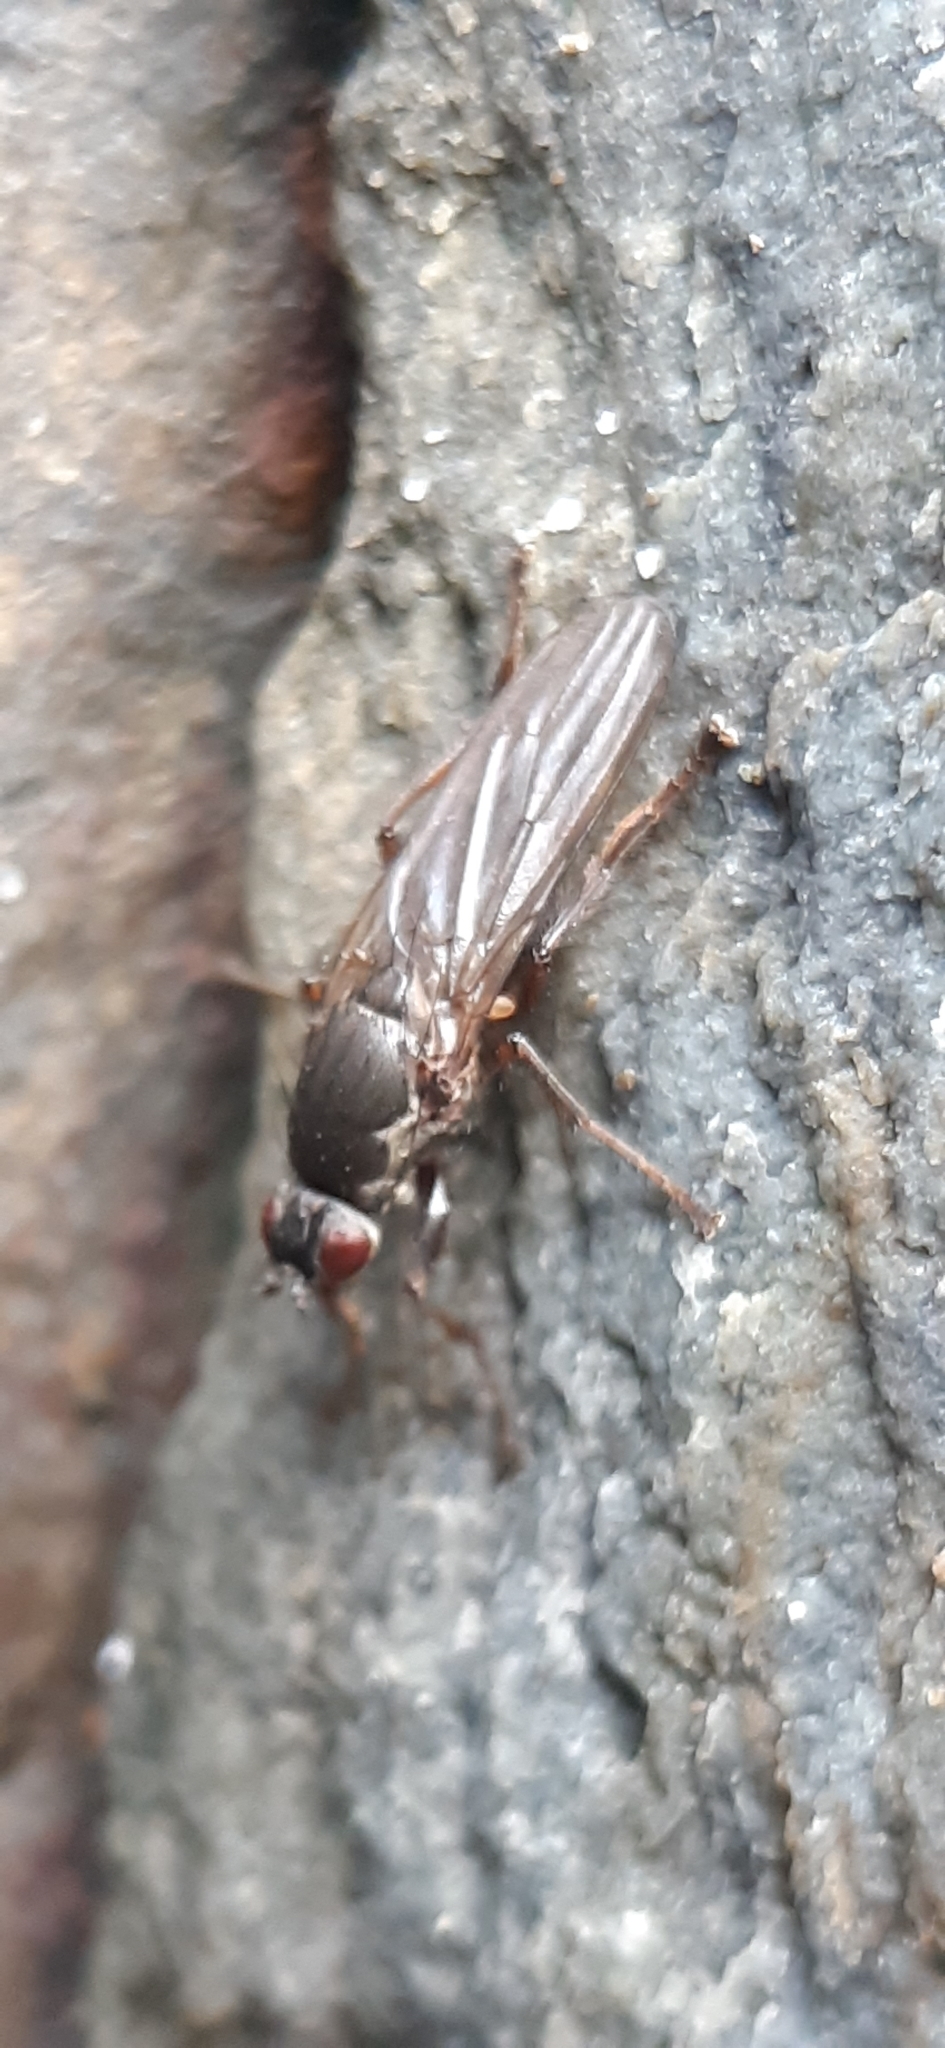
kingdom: Animalia
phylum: Arthropoda
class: Insecta
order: Diptera
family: Coelopidae
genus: Chaetocoelopa
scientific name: Chaetocoelopa littoralis
